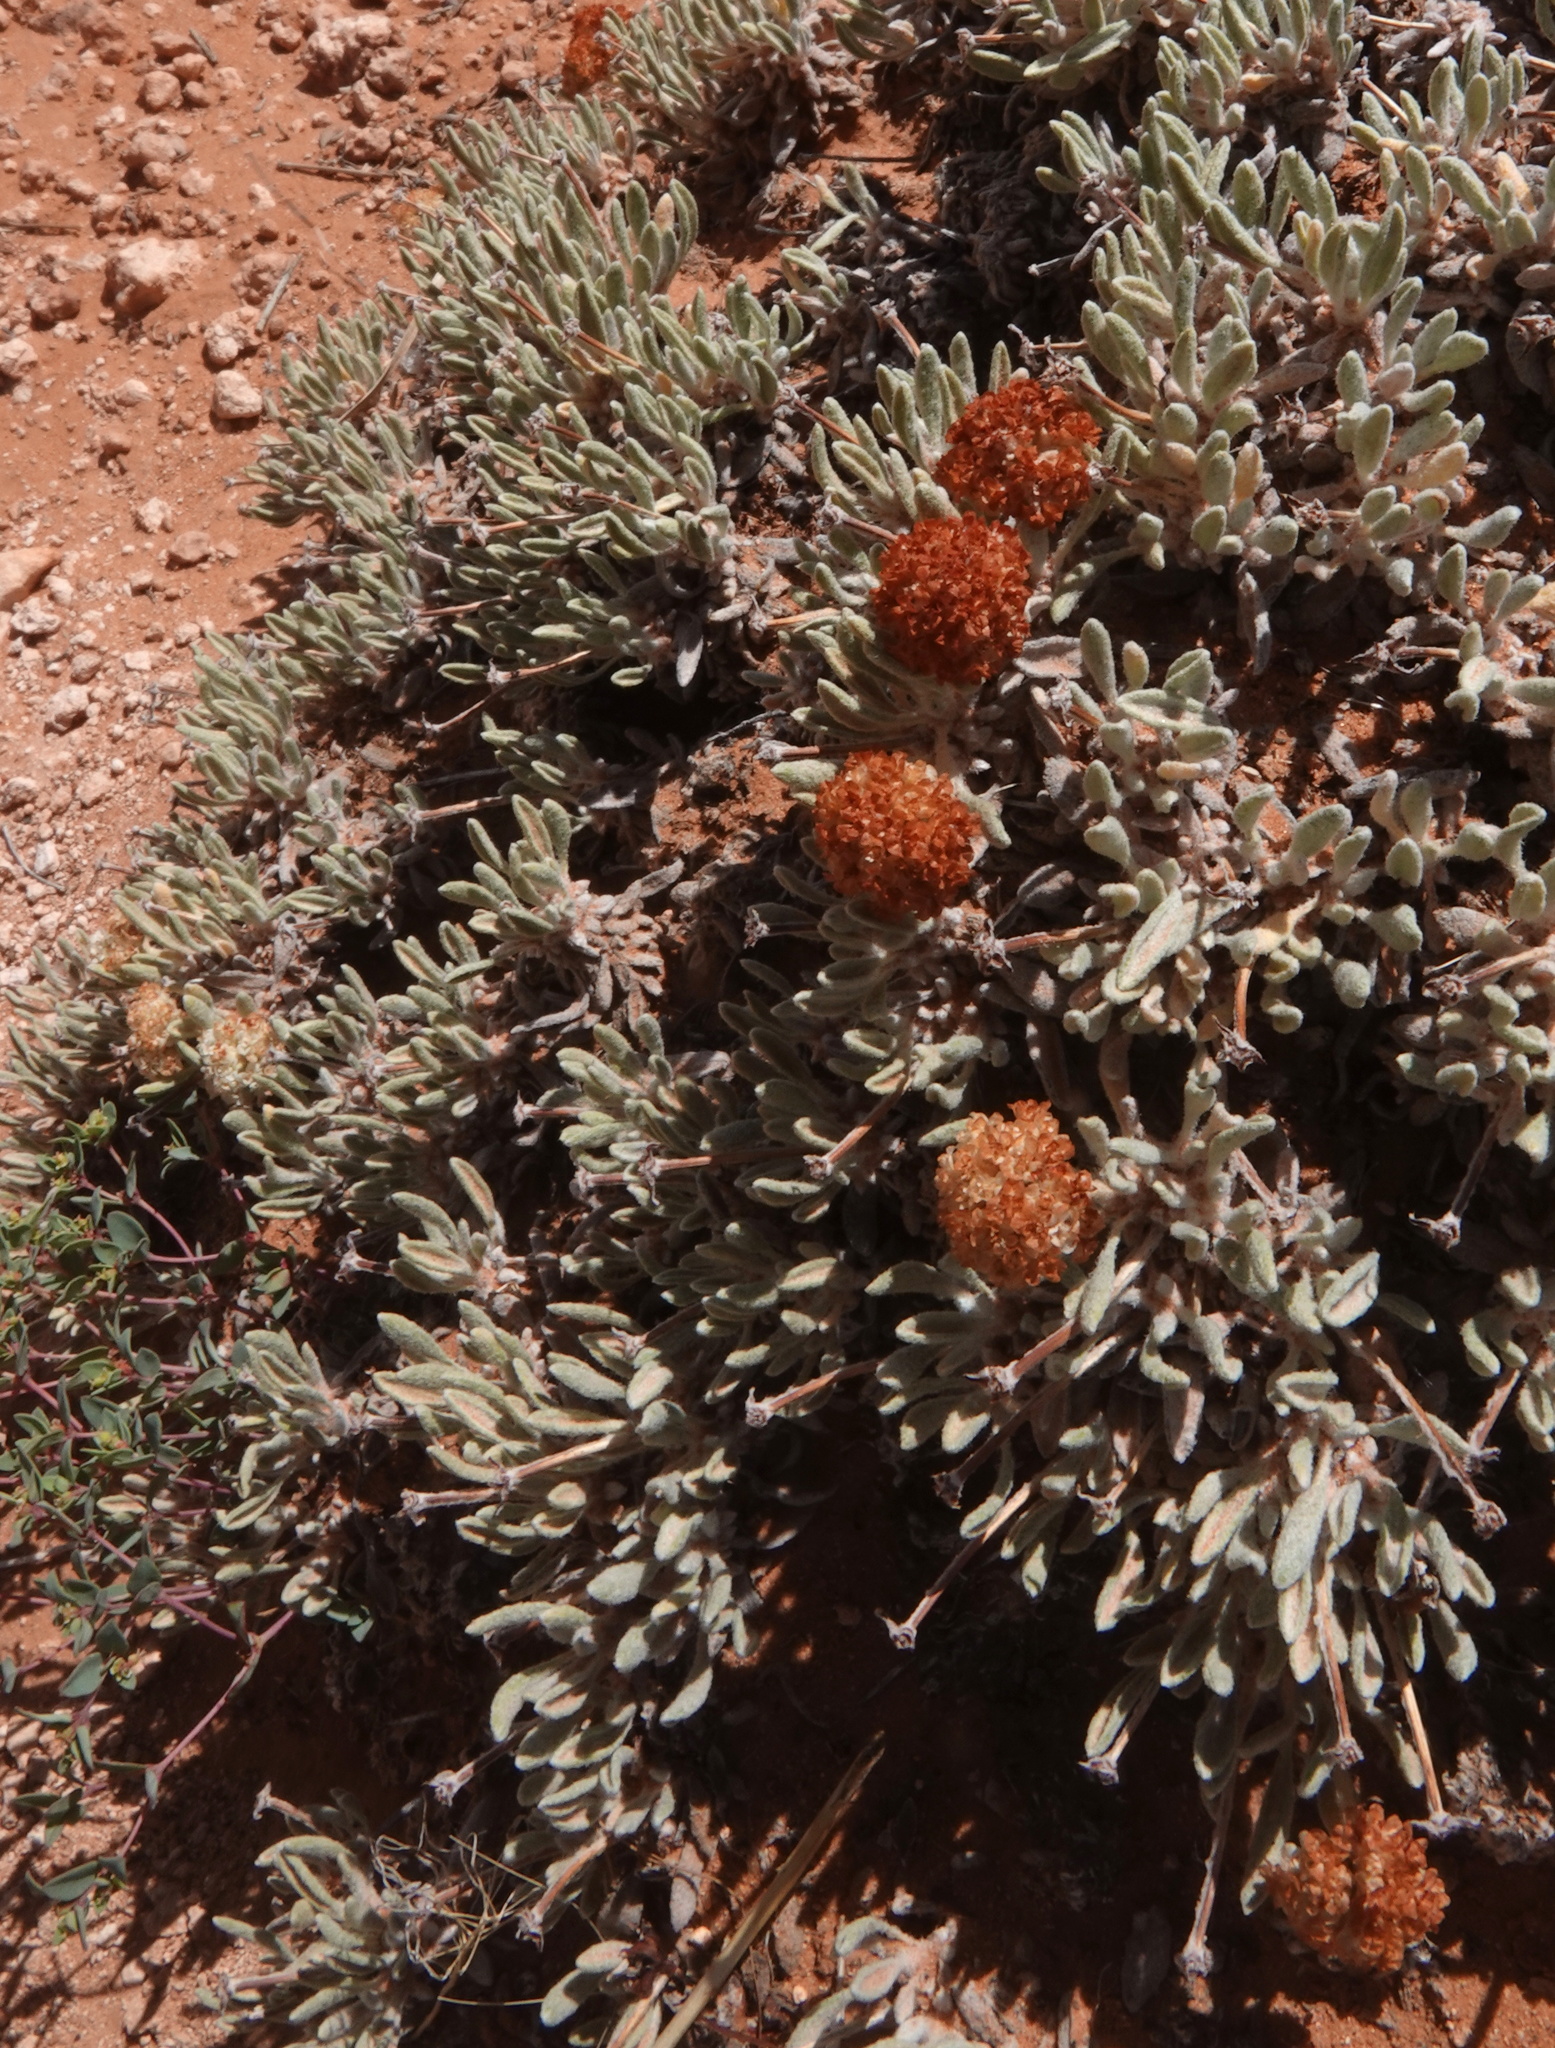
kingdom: Plantae
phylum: Tracheophyta
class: Magnoliopsida
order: Caryophyllales
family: Polygonaceae
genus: Eriogonum
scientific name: Eriogonum shockleyi
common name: Shockley's wild buckwheat
